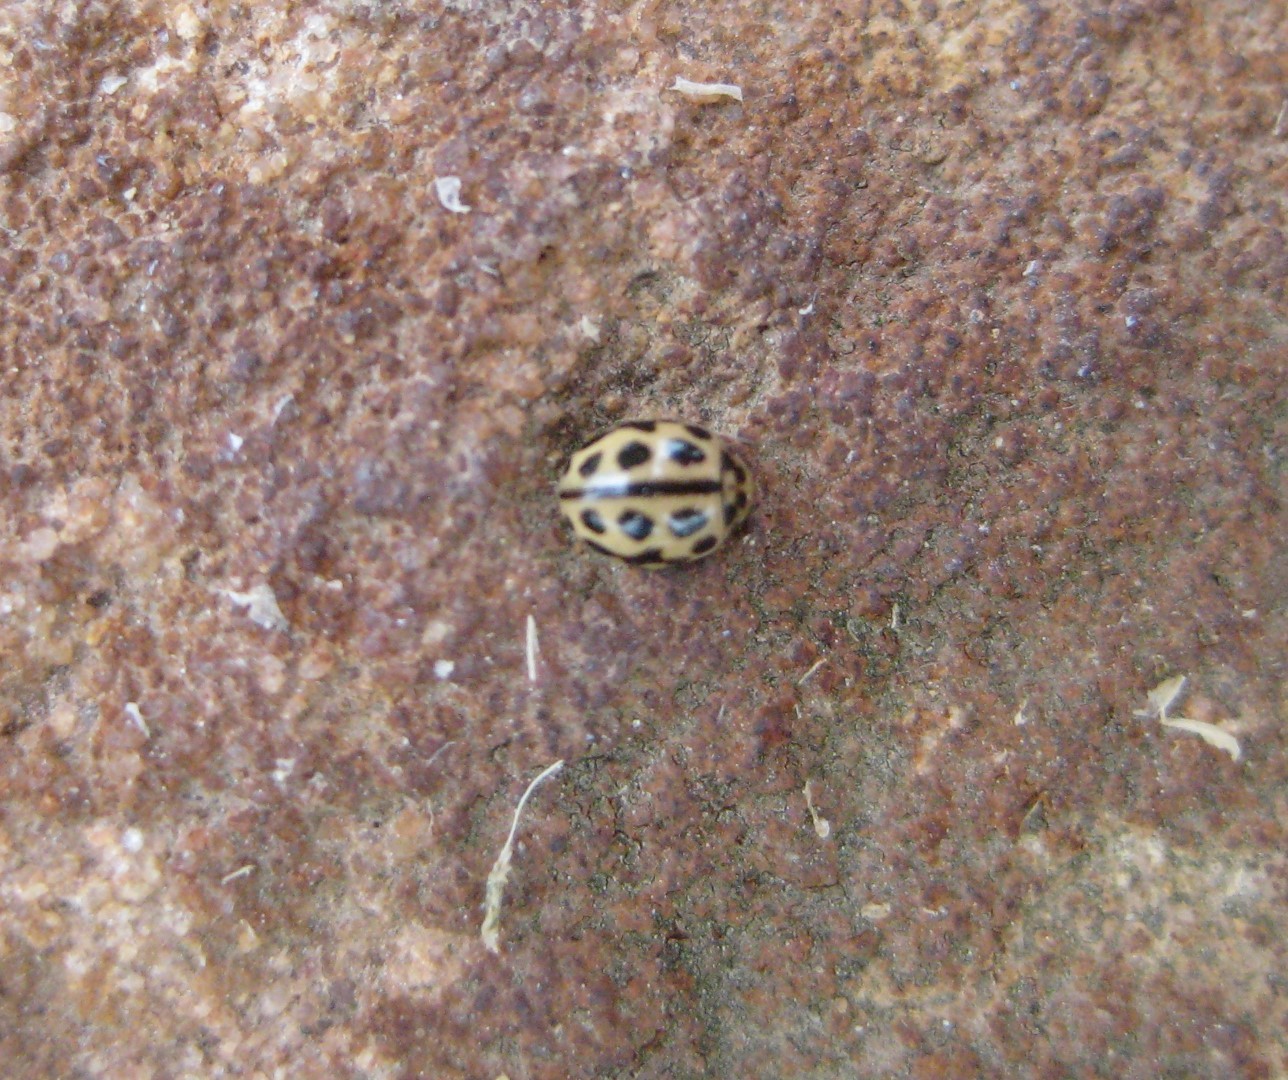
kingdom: Animalia
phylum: Arthropoda
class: Insecta
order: Coleoptera
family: Coccinellidae
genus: Tytthaspis
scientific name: Tytthaspis sedecimpunctata
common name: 16-spot ladybird
